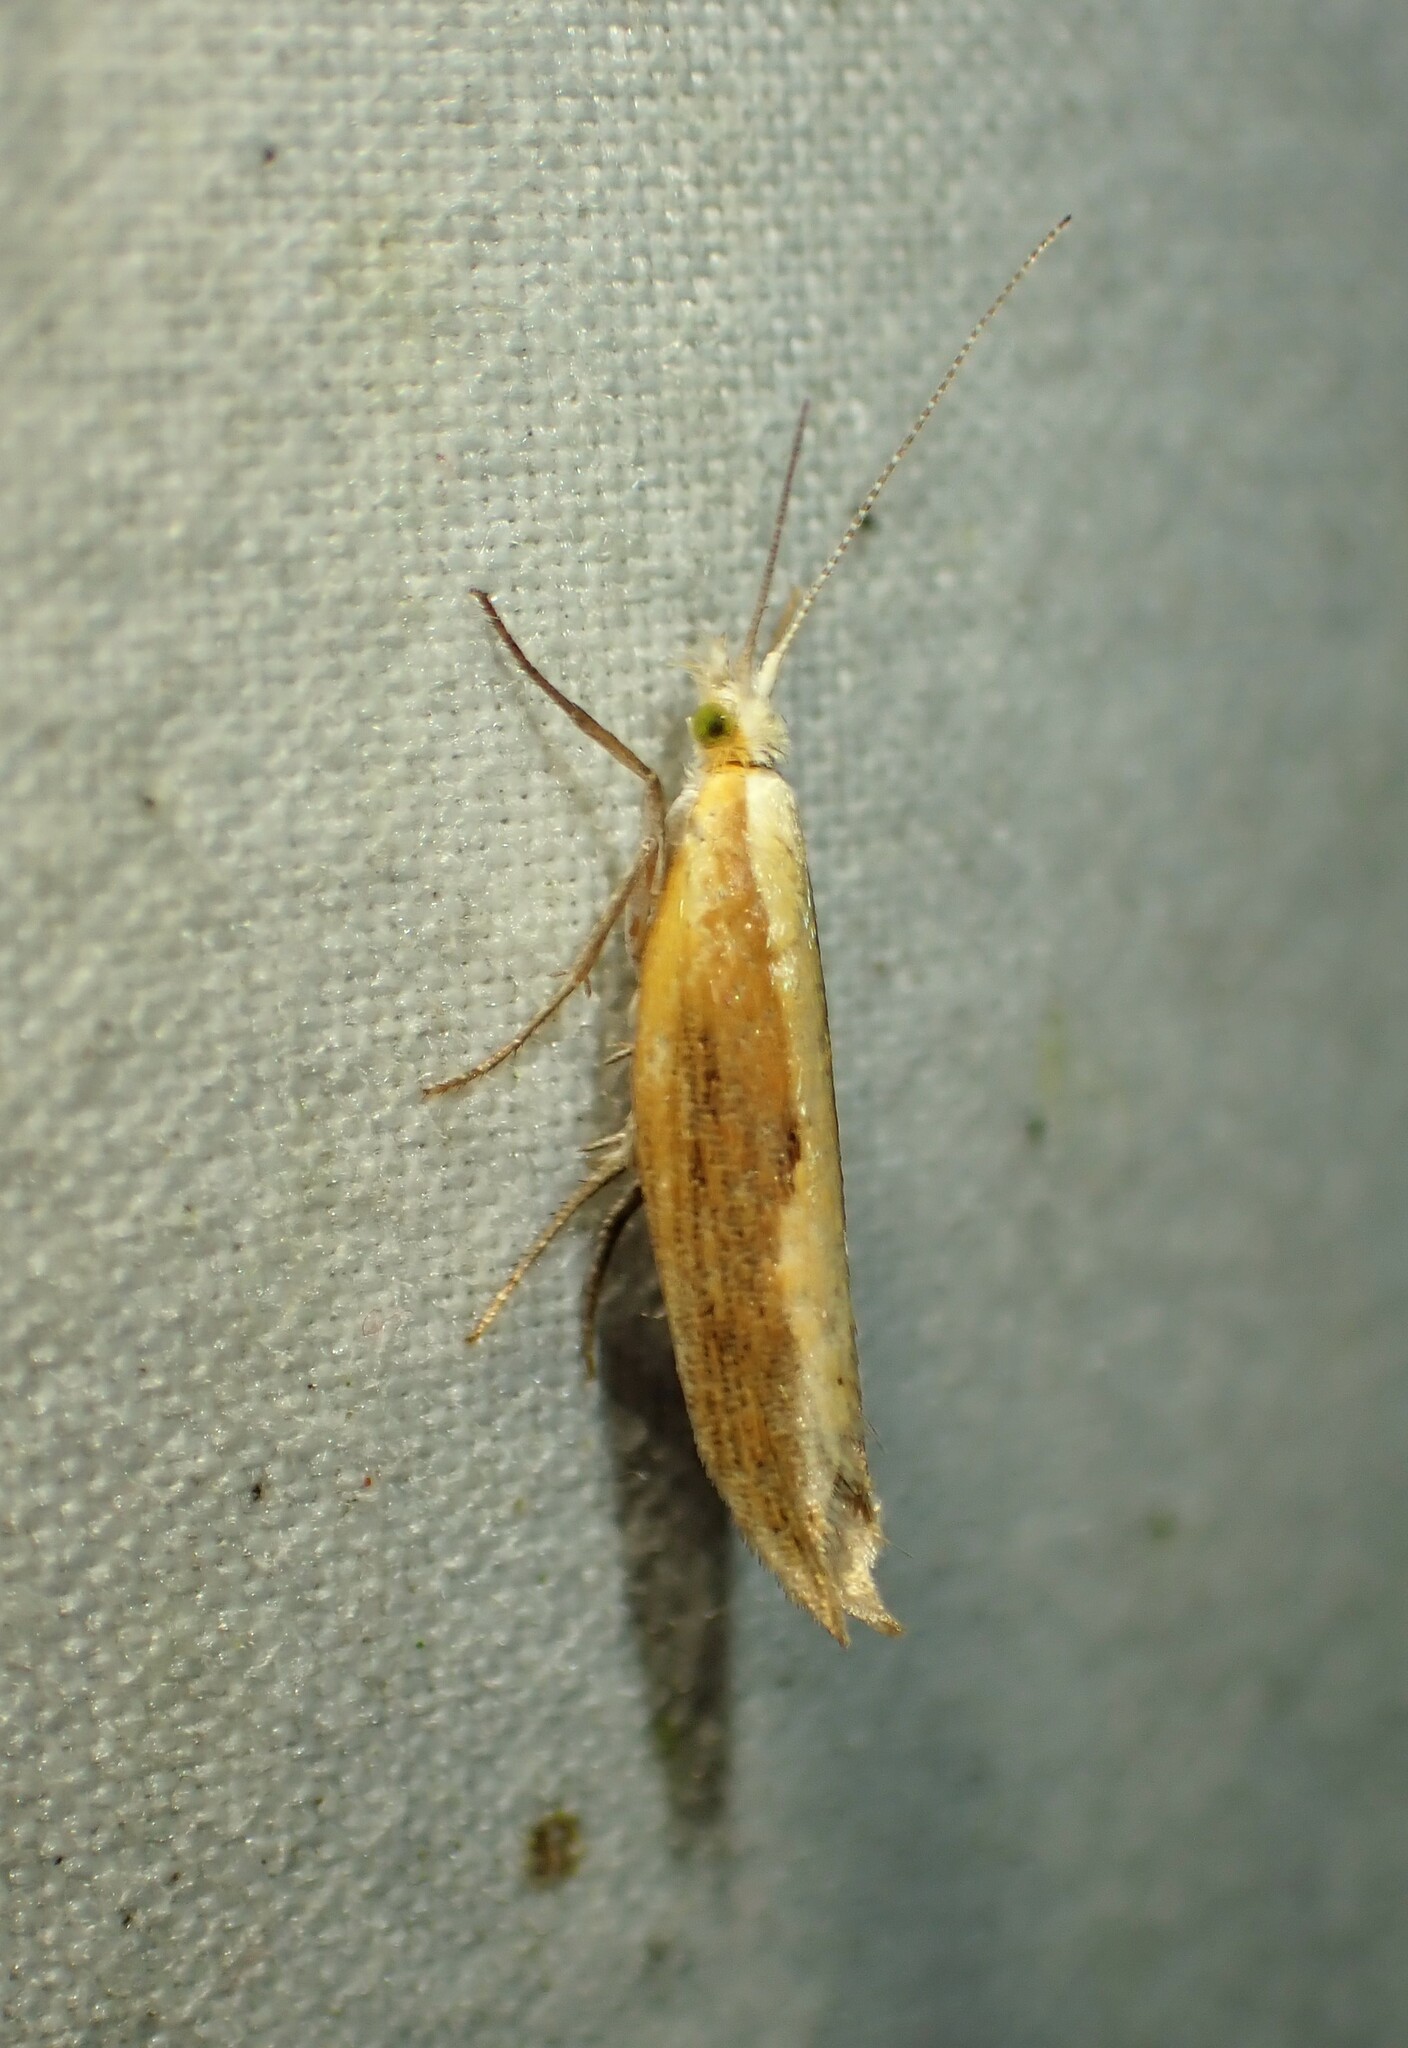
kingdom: Animalia
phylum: Arthropoda
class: Insecta
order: Lepidoptera
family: Ypsolophidae
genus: Ypsolopha
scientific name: Ypsolopha canariella
